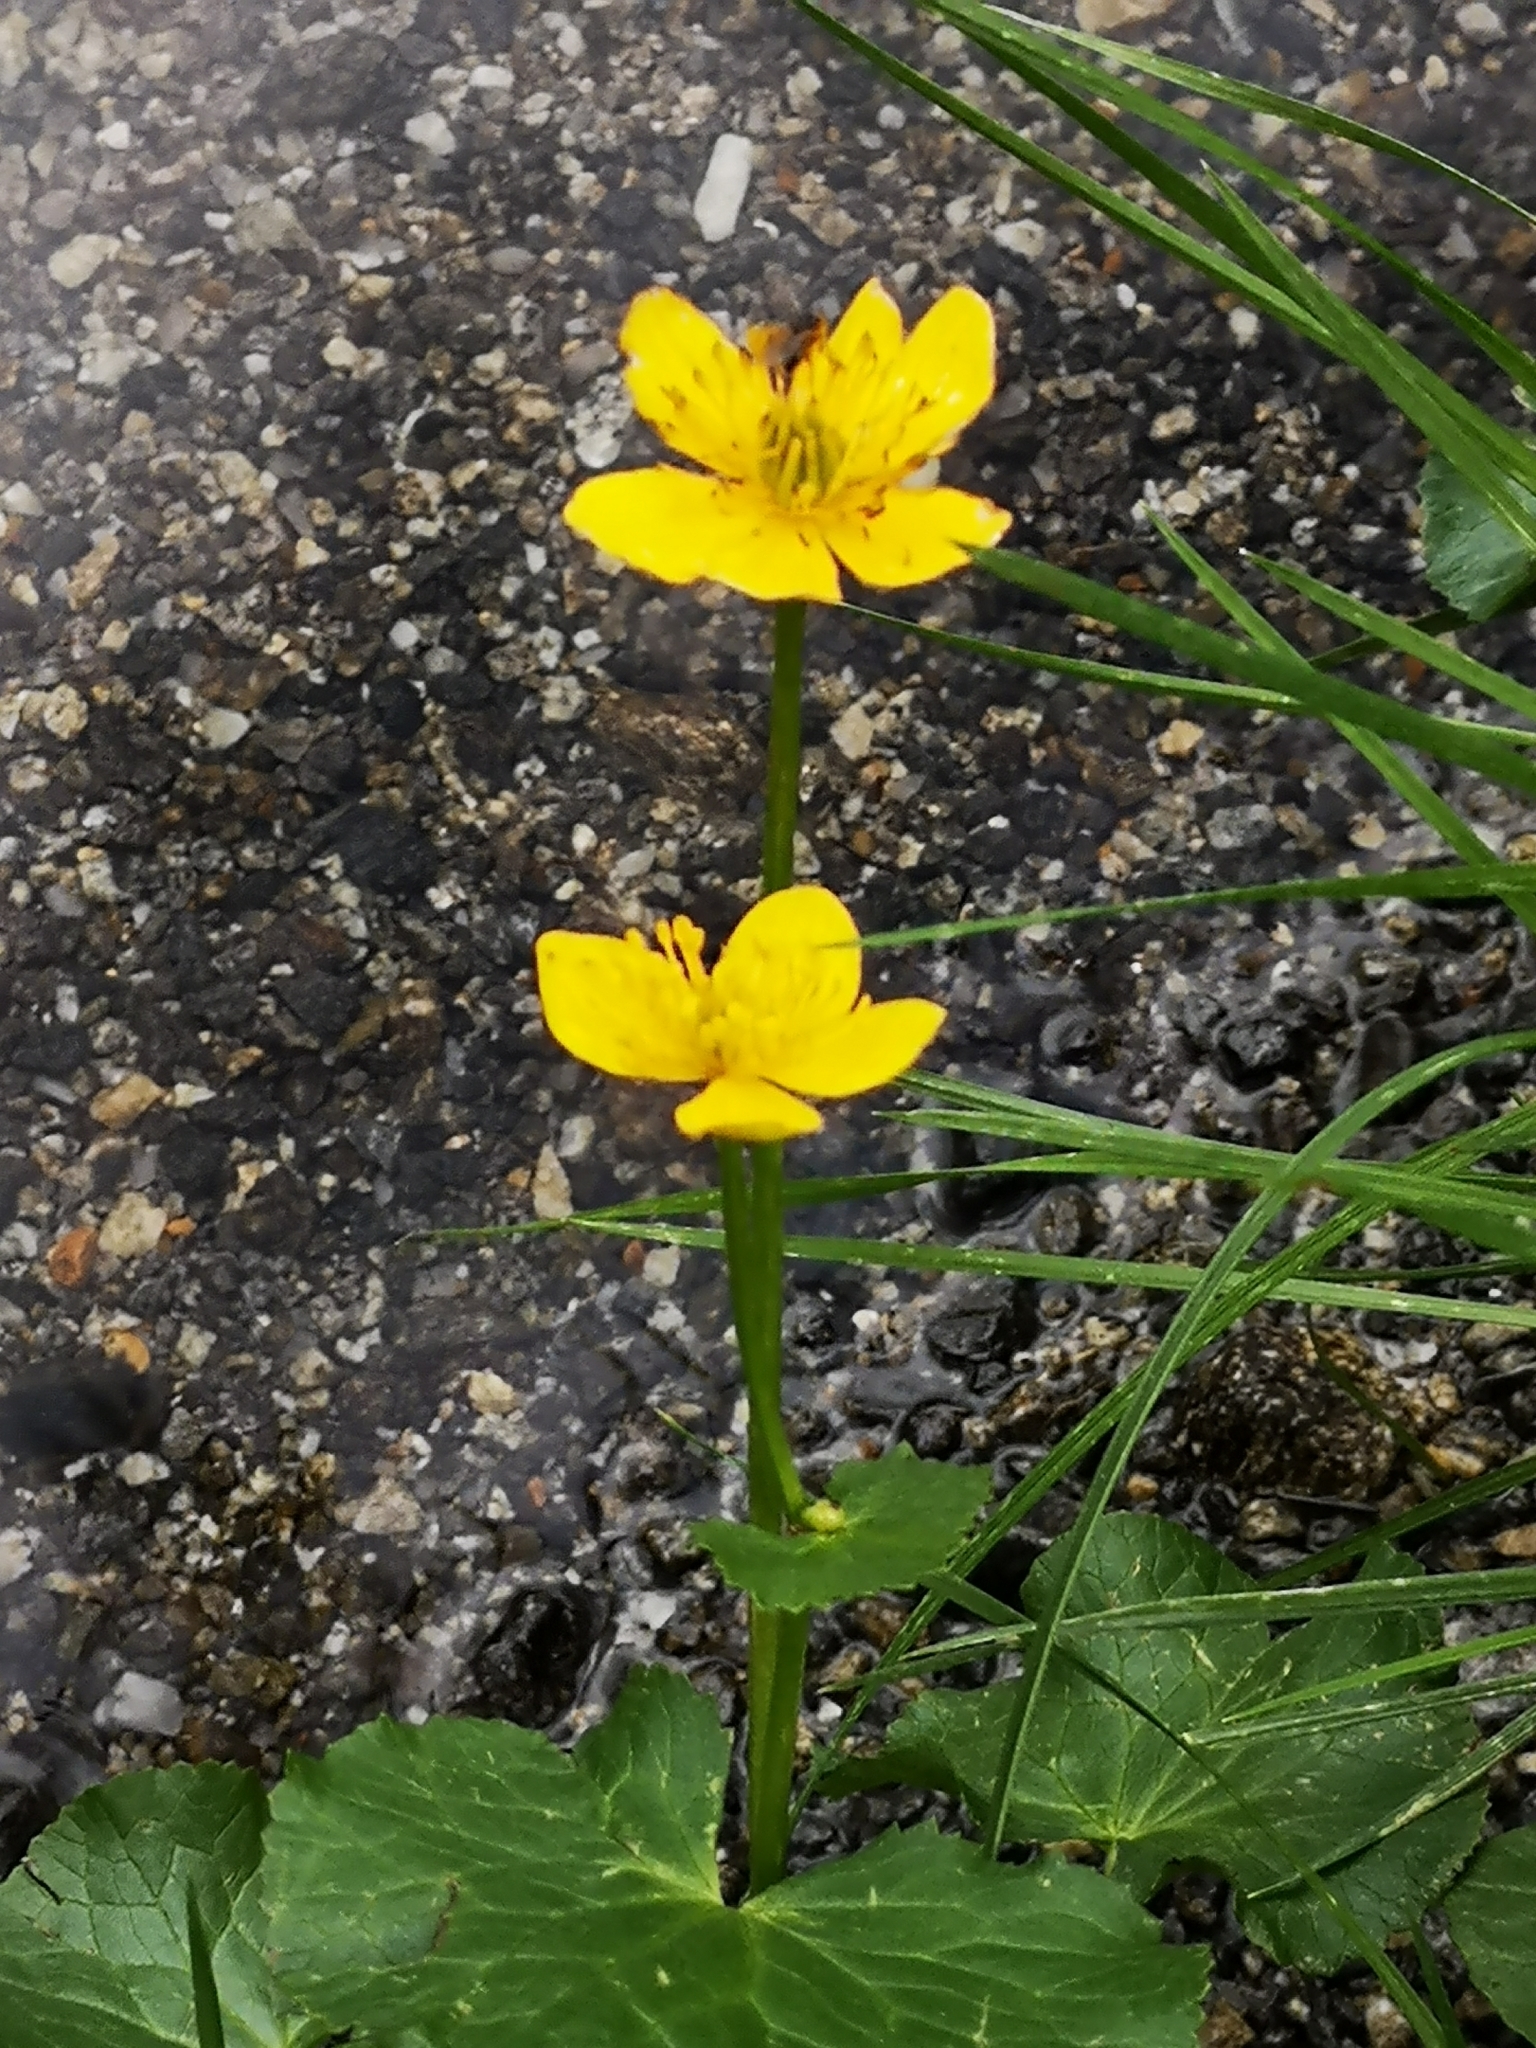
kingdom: Plantae
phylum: Tracheophyta
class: Magnoliopsida
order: Ranunculales
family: Ranunculaceae
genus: Caltha
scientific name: Caltha palustris
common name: Marsh marigold
